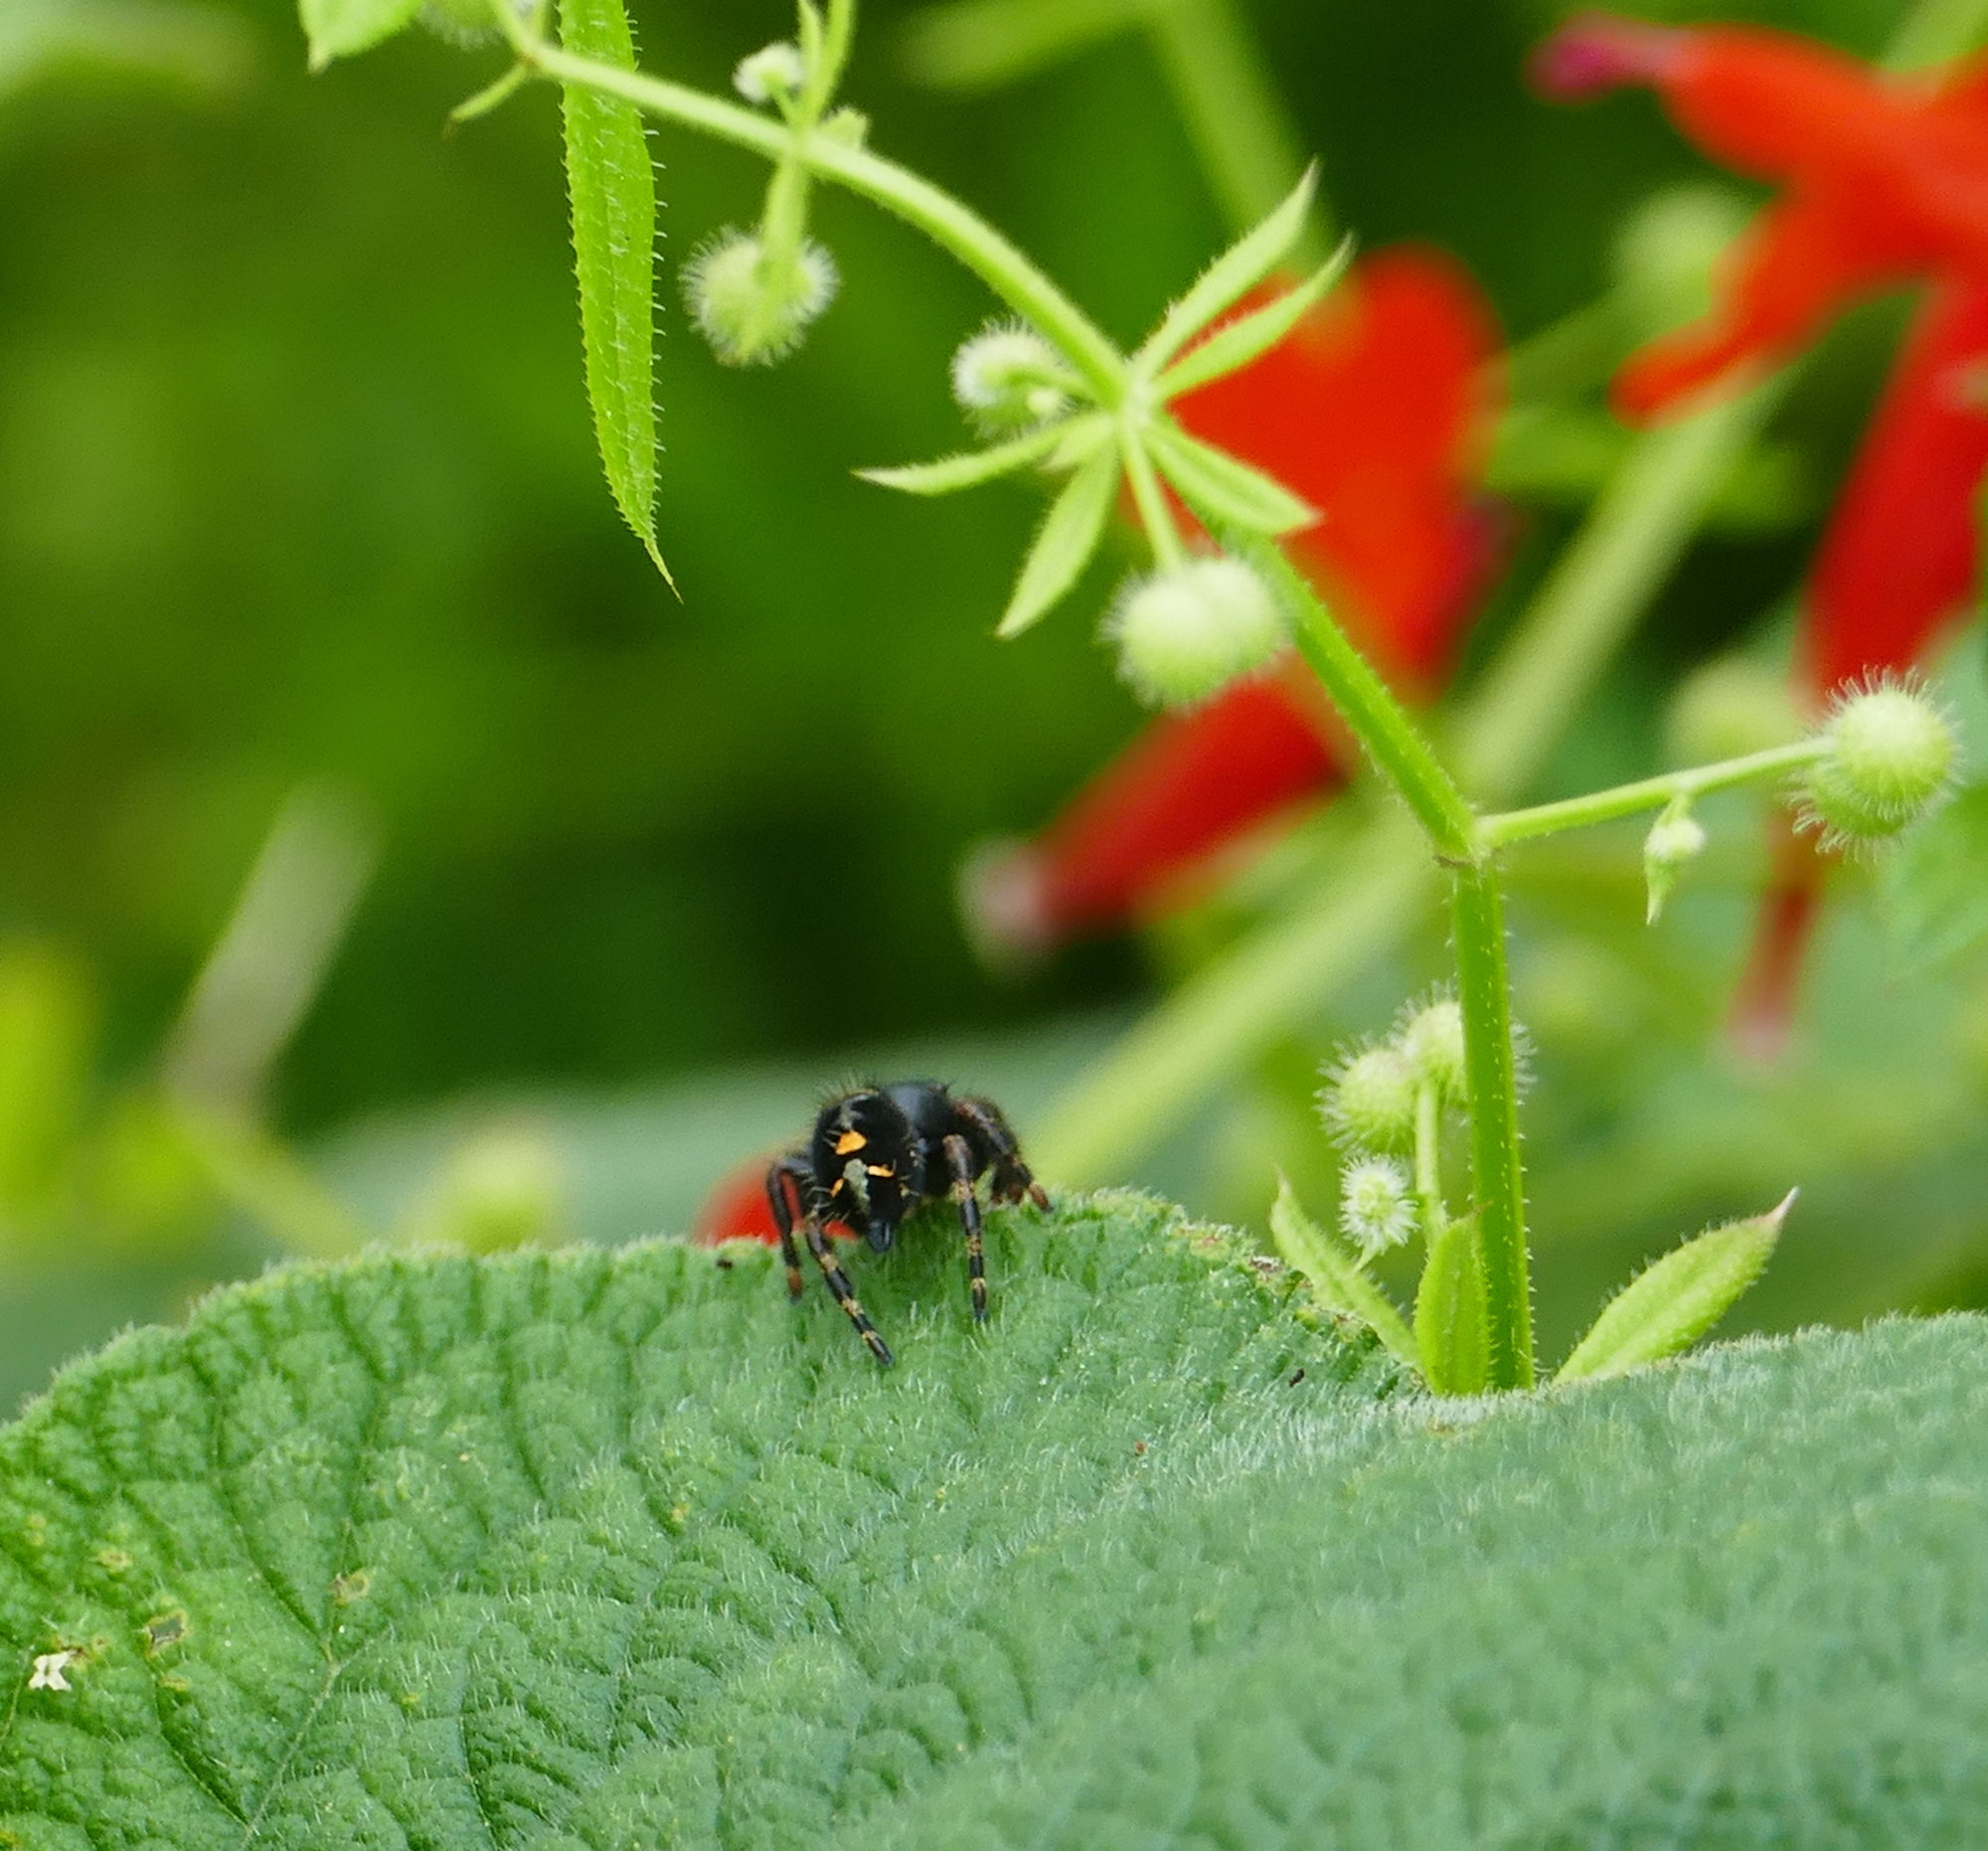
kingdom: Animalia
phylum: Arthropoda
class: Arachnida
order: Araneae
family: Salticidae
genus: Phidippus
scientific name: Phidippus audax
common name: Bold jumper
